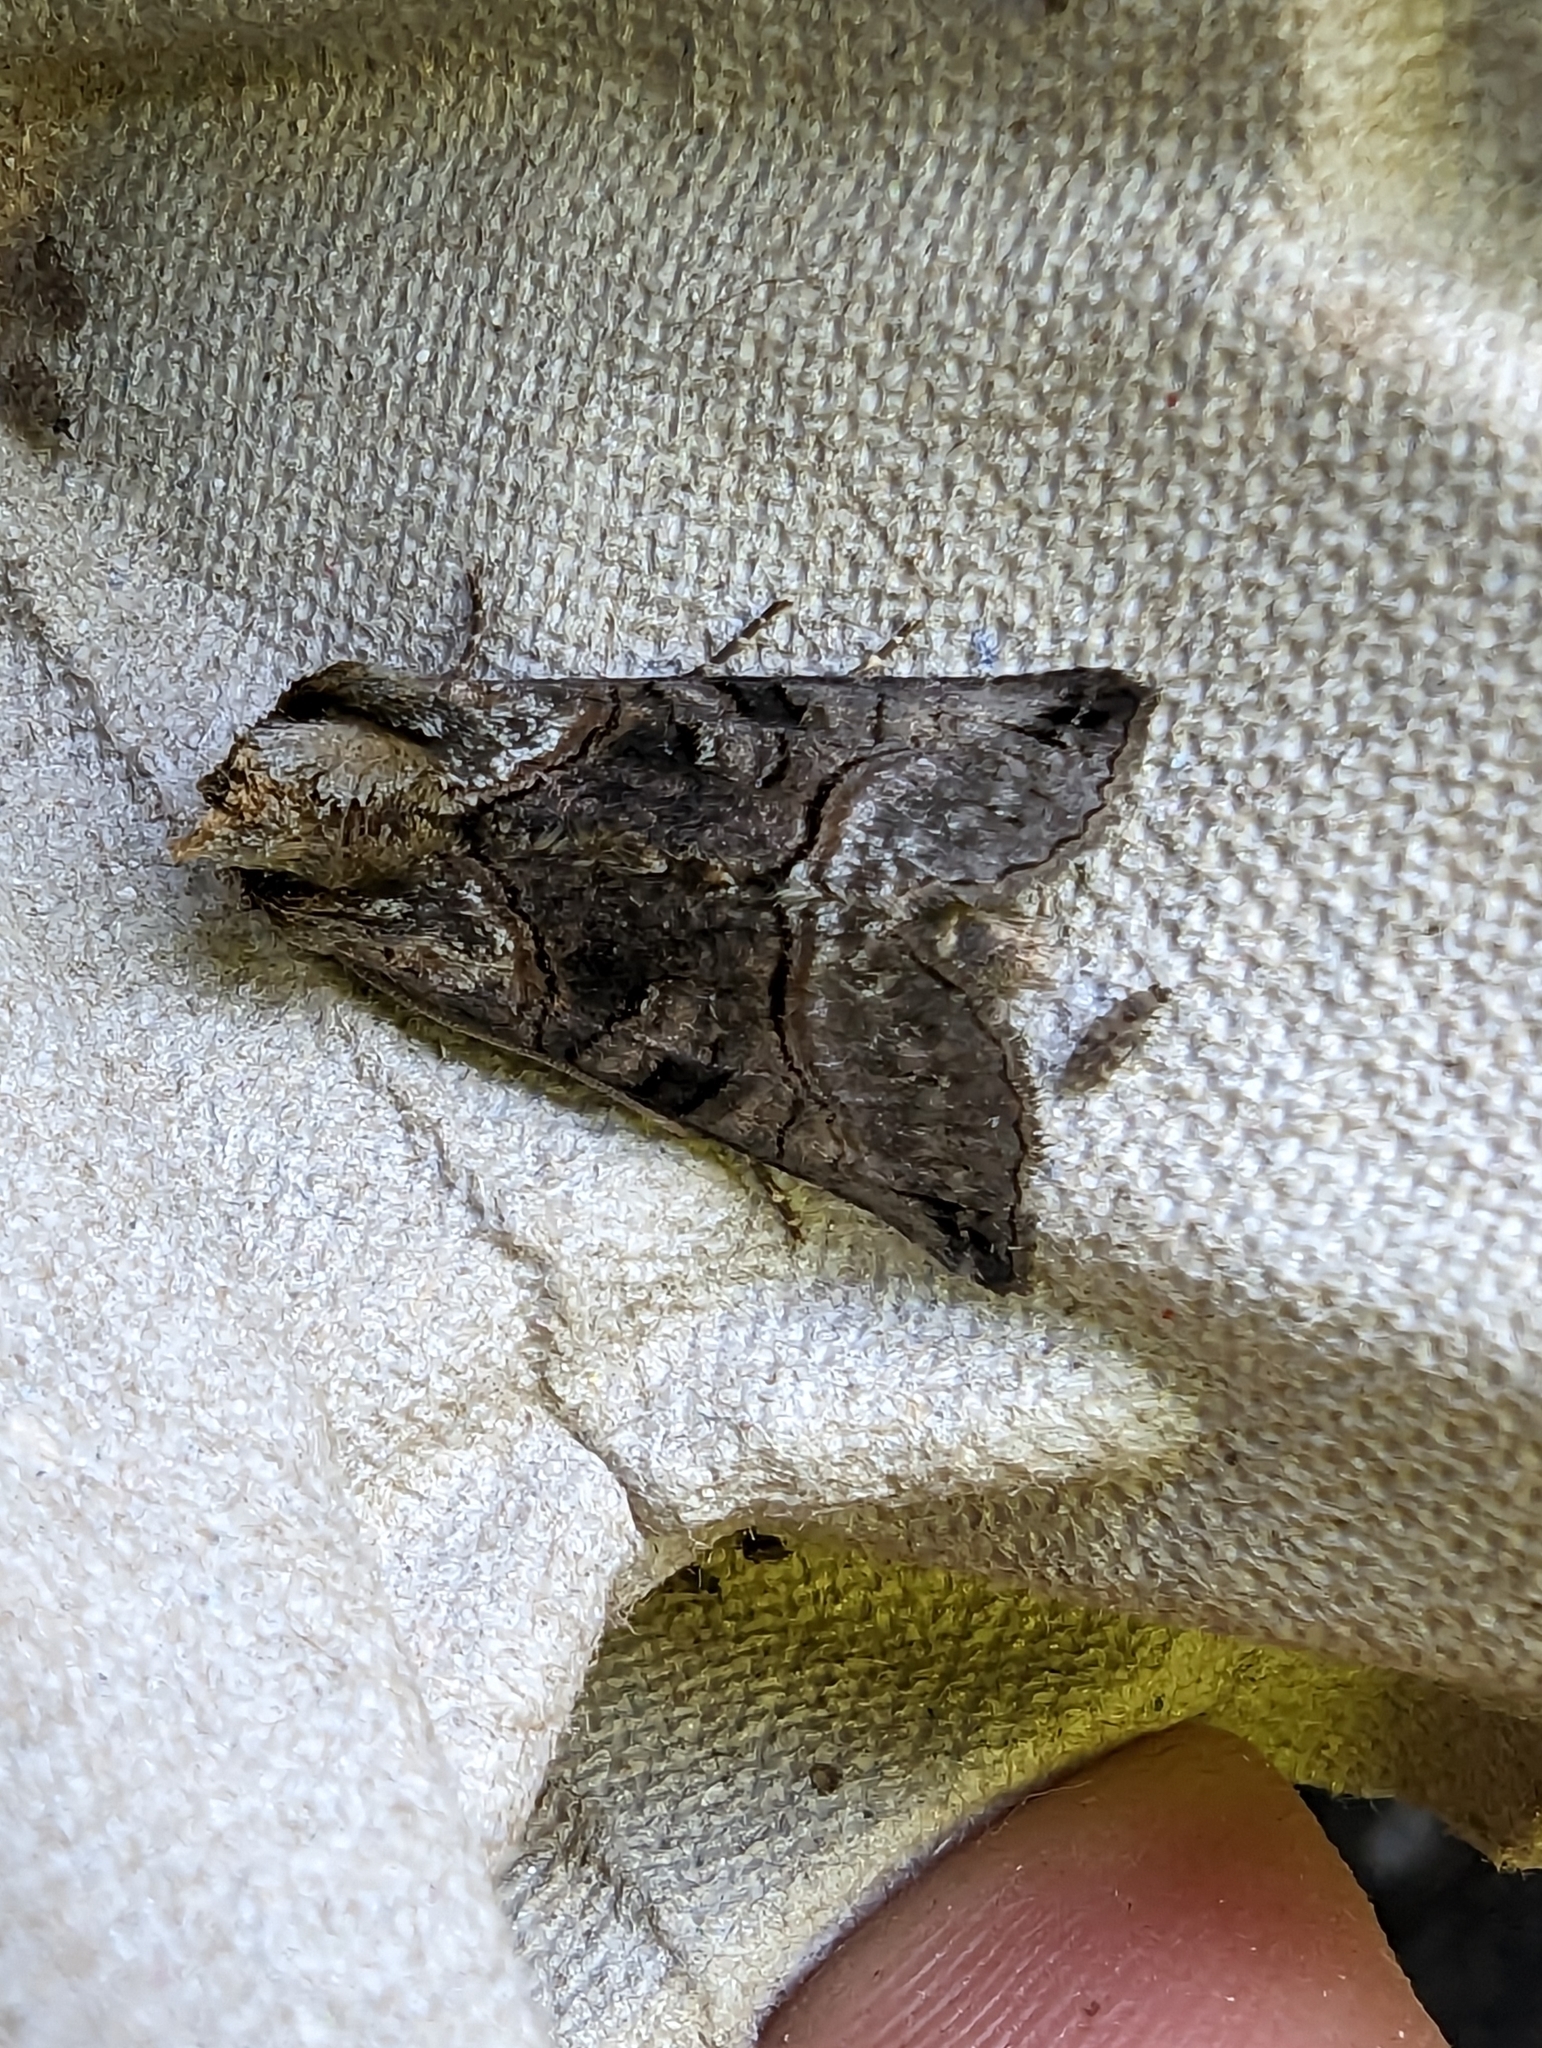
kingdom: Animalia
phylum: Arthropoda
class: Insecta
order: Lepidoptera
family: Noctuidae
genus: Abrostola
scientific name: Abrostola tripartita
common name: Spectacle
